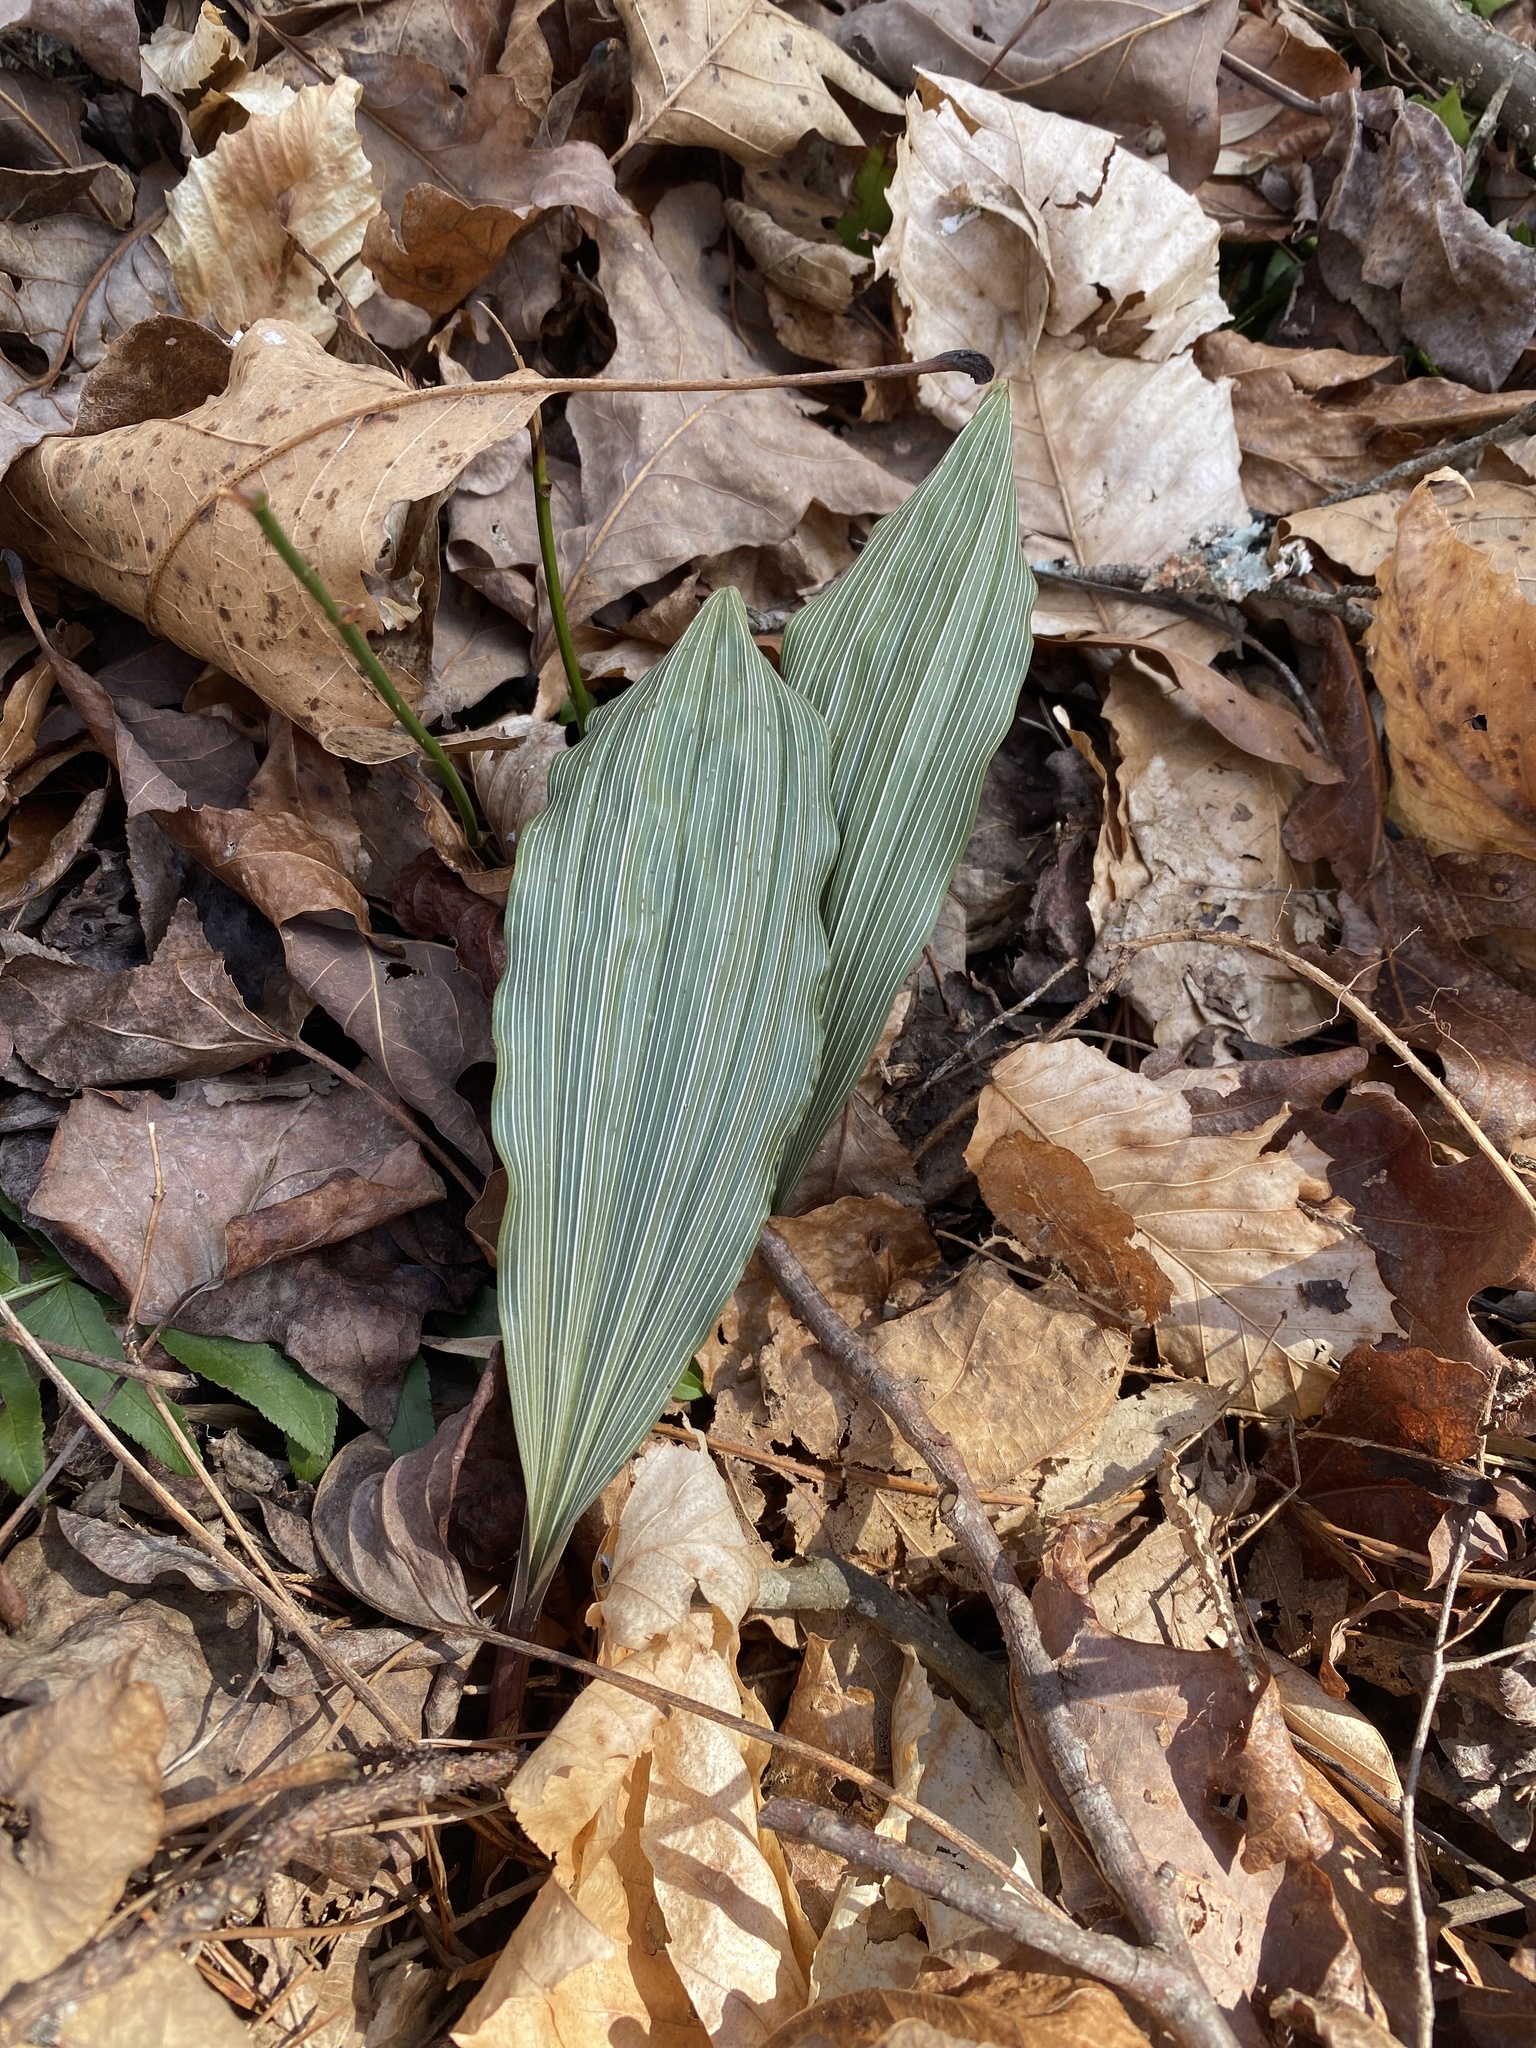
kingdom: Plantae
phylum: Tracheophyta
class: Liliopsida
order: Asparagales
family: Orchidaceae
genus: Aplectrum
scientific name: Aplectrum hyemale
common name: Adam-and-eve
